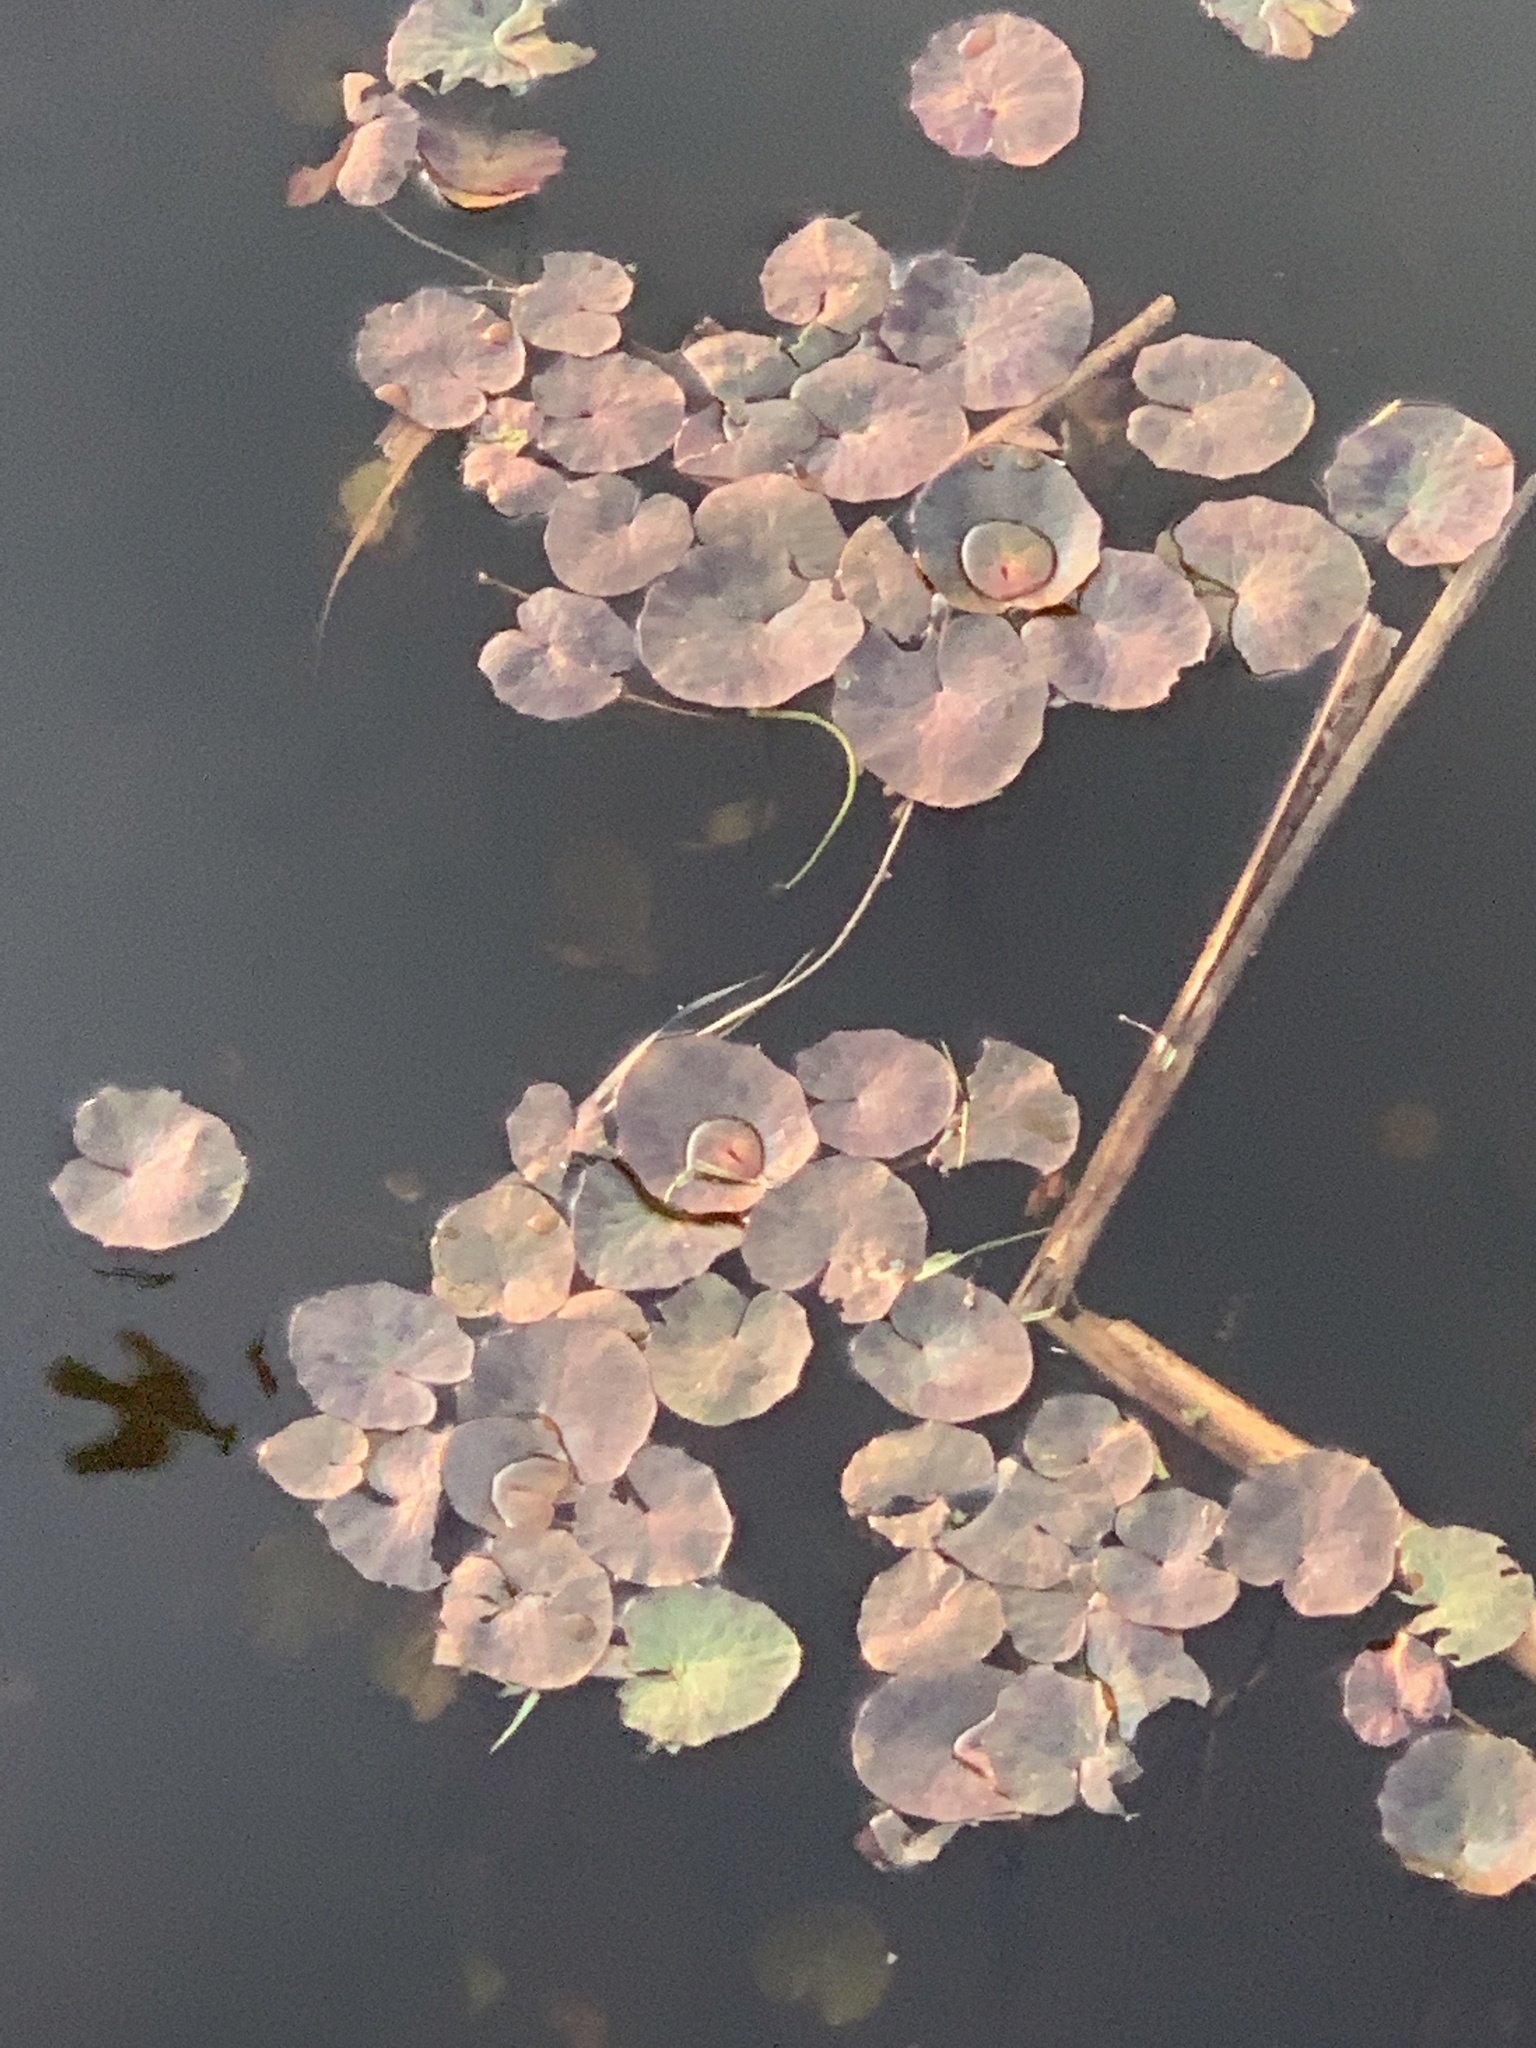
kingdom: Plantae
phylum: Tracheophyta
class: Magnoliopsida
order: Asterales
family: Menyanthaceae
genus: Nymphoides
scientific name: Nymphoides peltata
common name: Fringed water-lily
